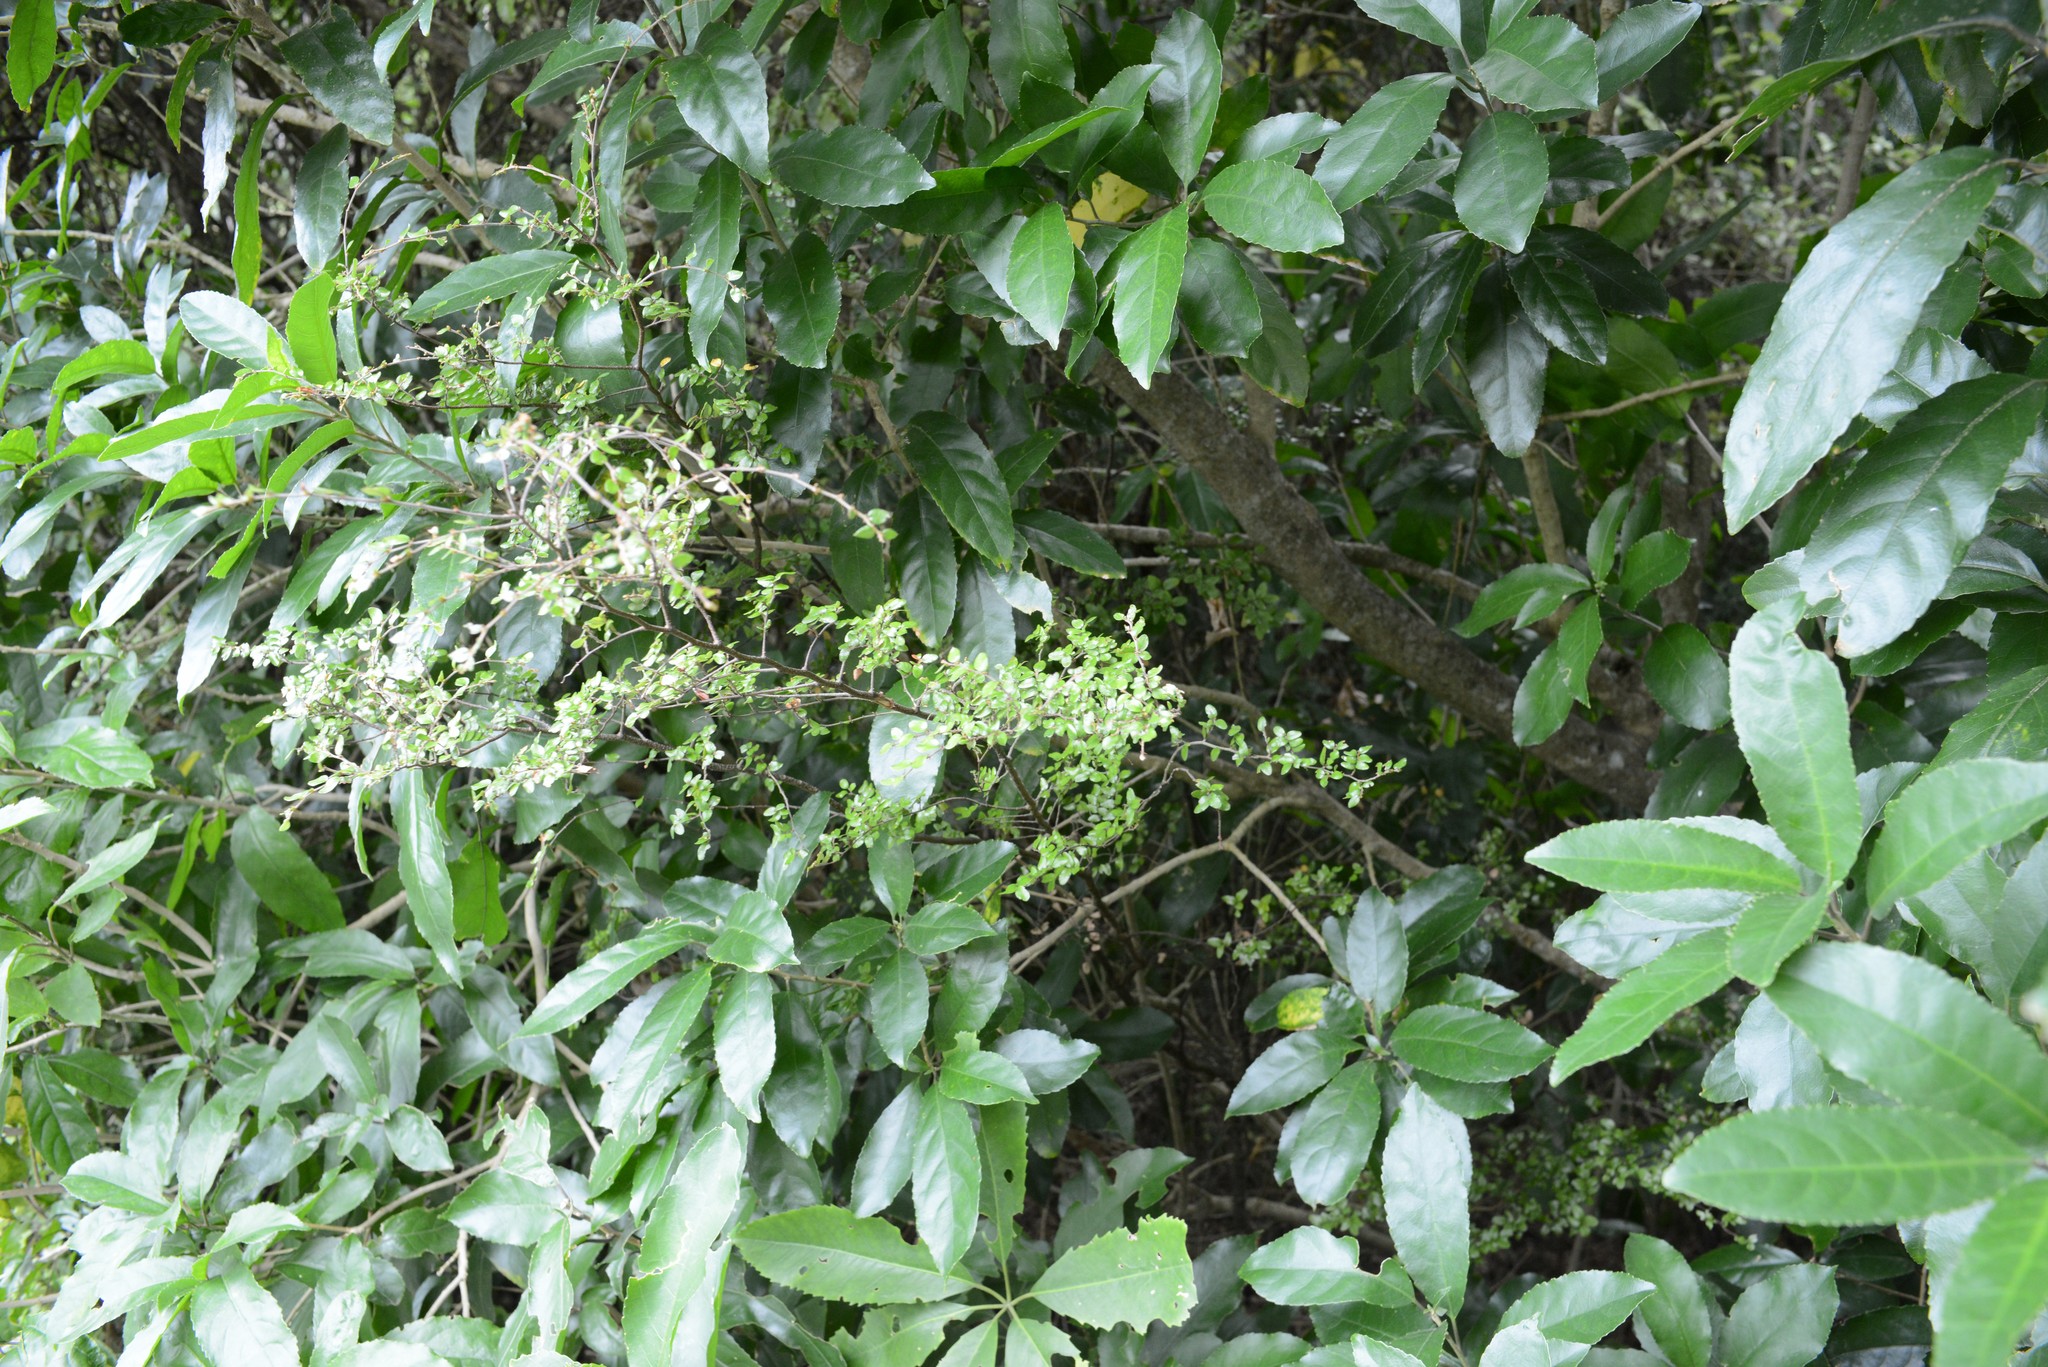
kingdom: Plantae
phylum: Tracheophyta
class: Magnoliopsida
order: Fagales
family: Nothofagaceae
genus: Nothofagus
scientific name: Nothofagus solandri
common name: Black beech
